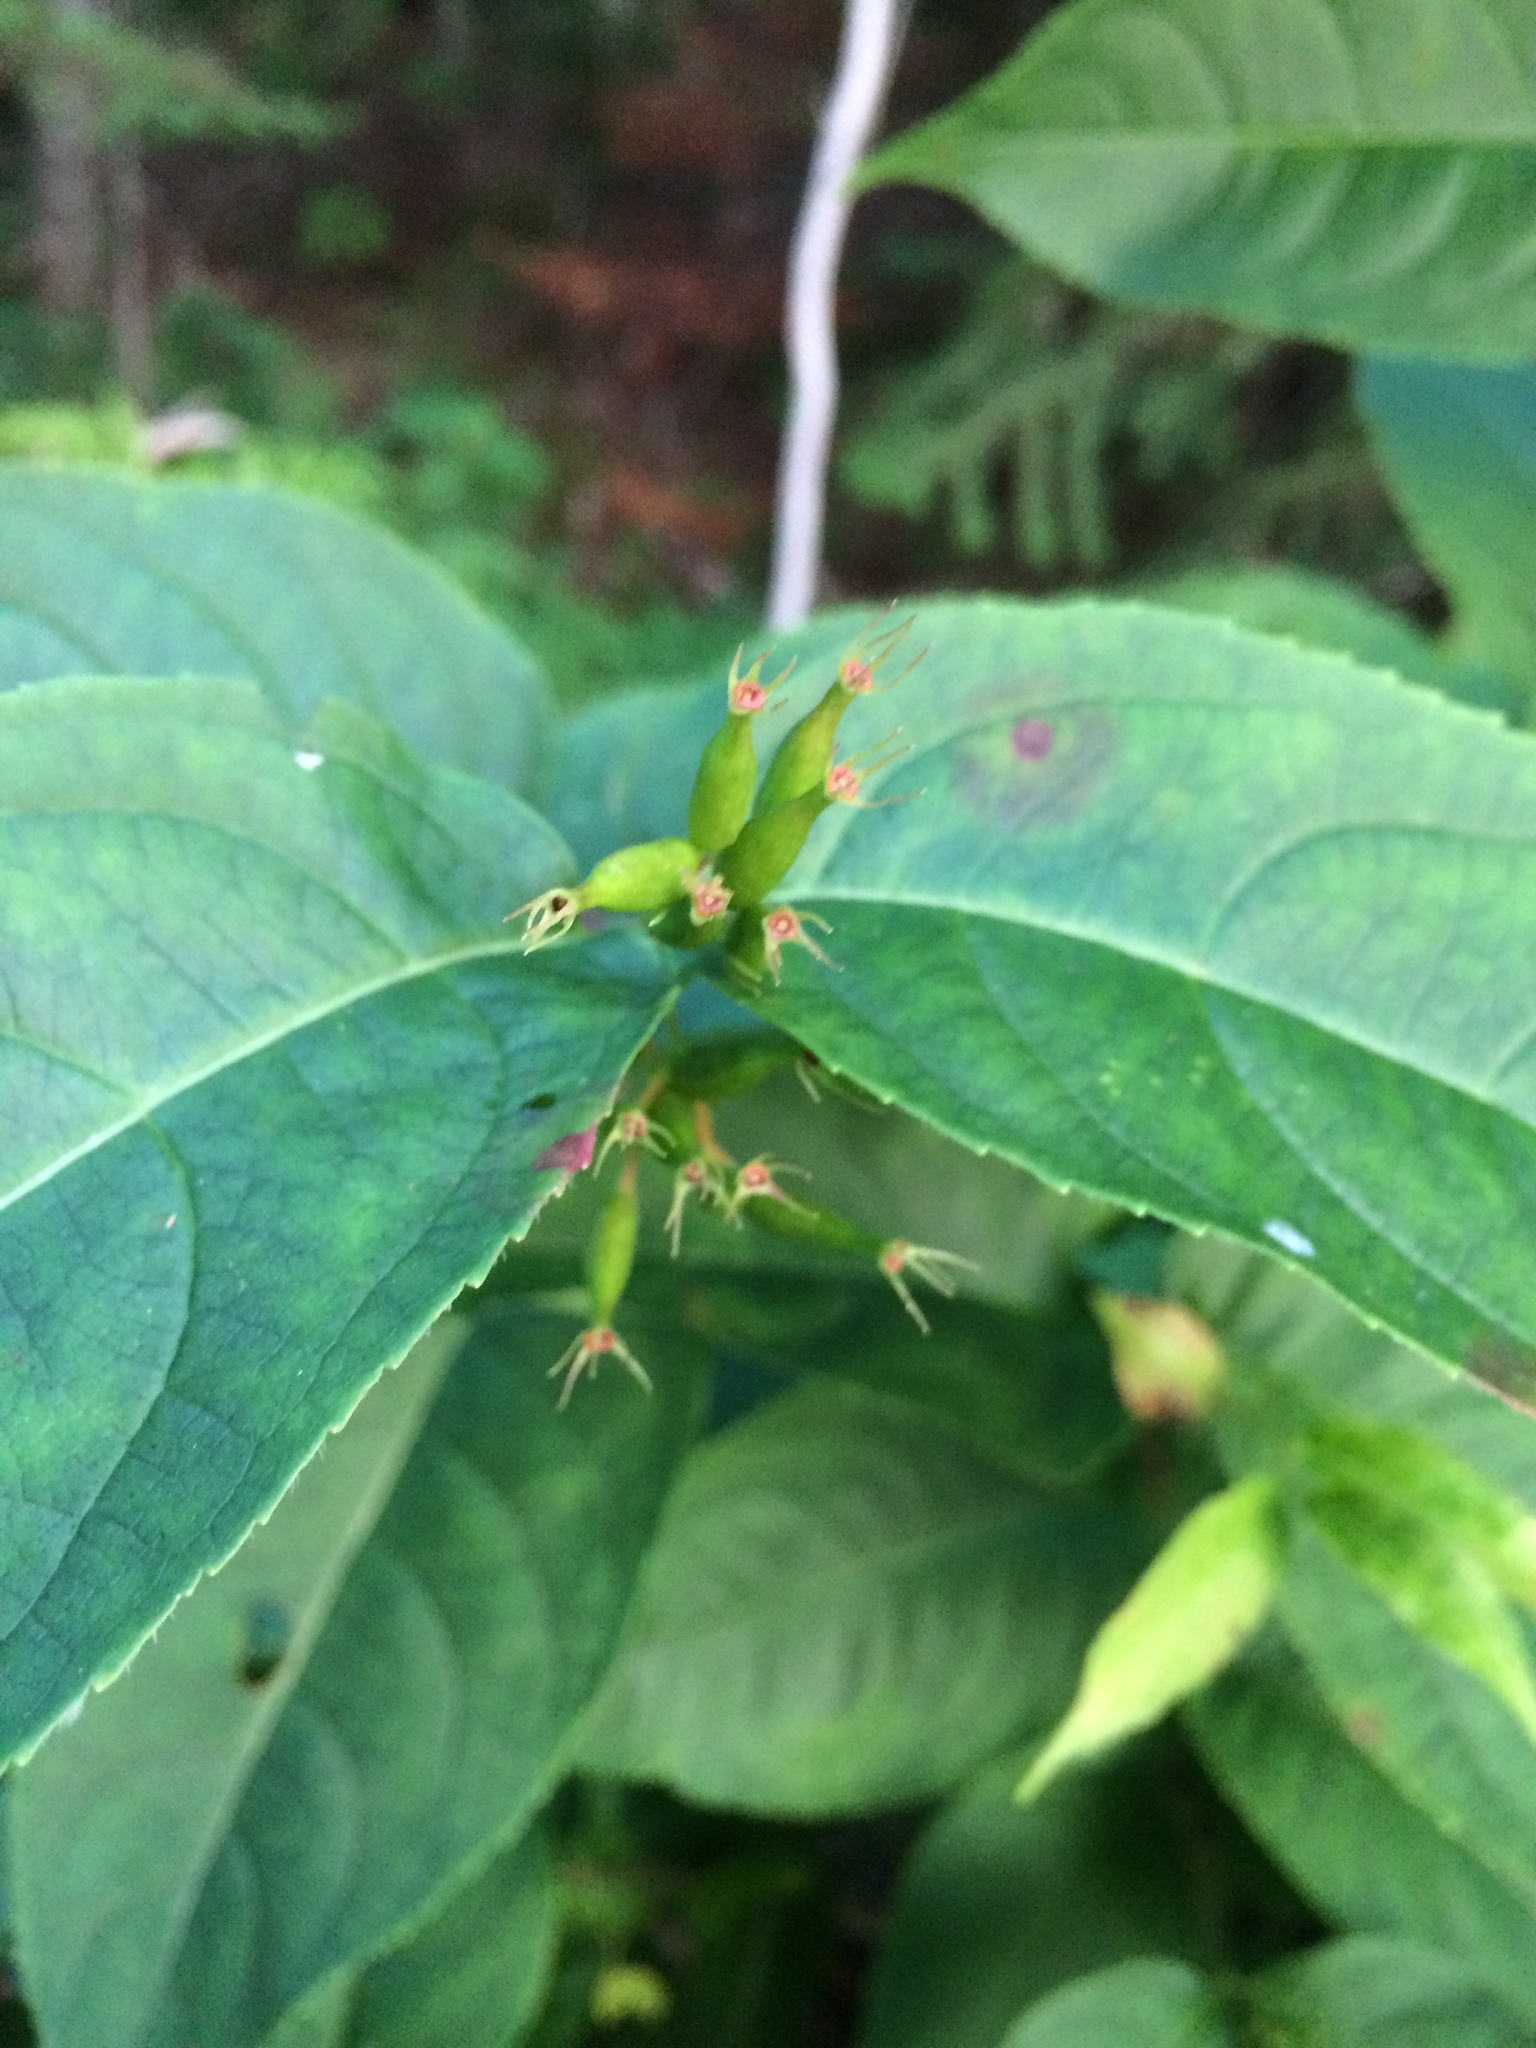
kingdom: Plantae
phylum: Tracheophyta
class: Magnoliopsida
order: Dipsacales
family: Caprifoliaceae
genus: Diervilla
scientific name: Diervilla lonicera
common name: Bush-honeysuckle
